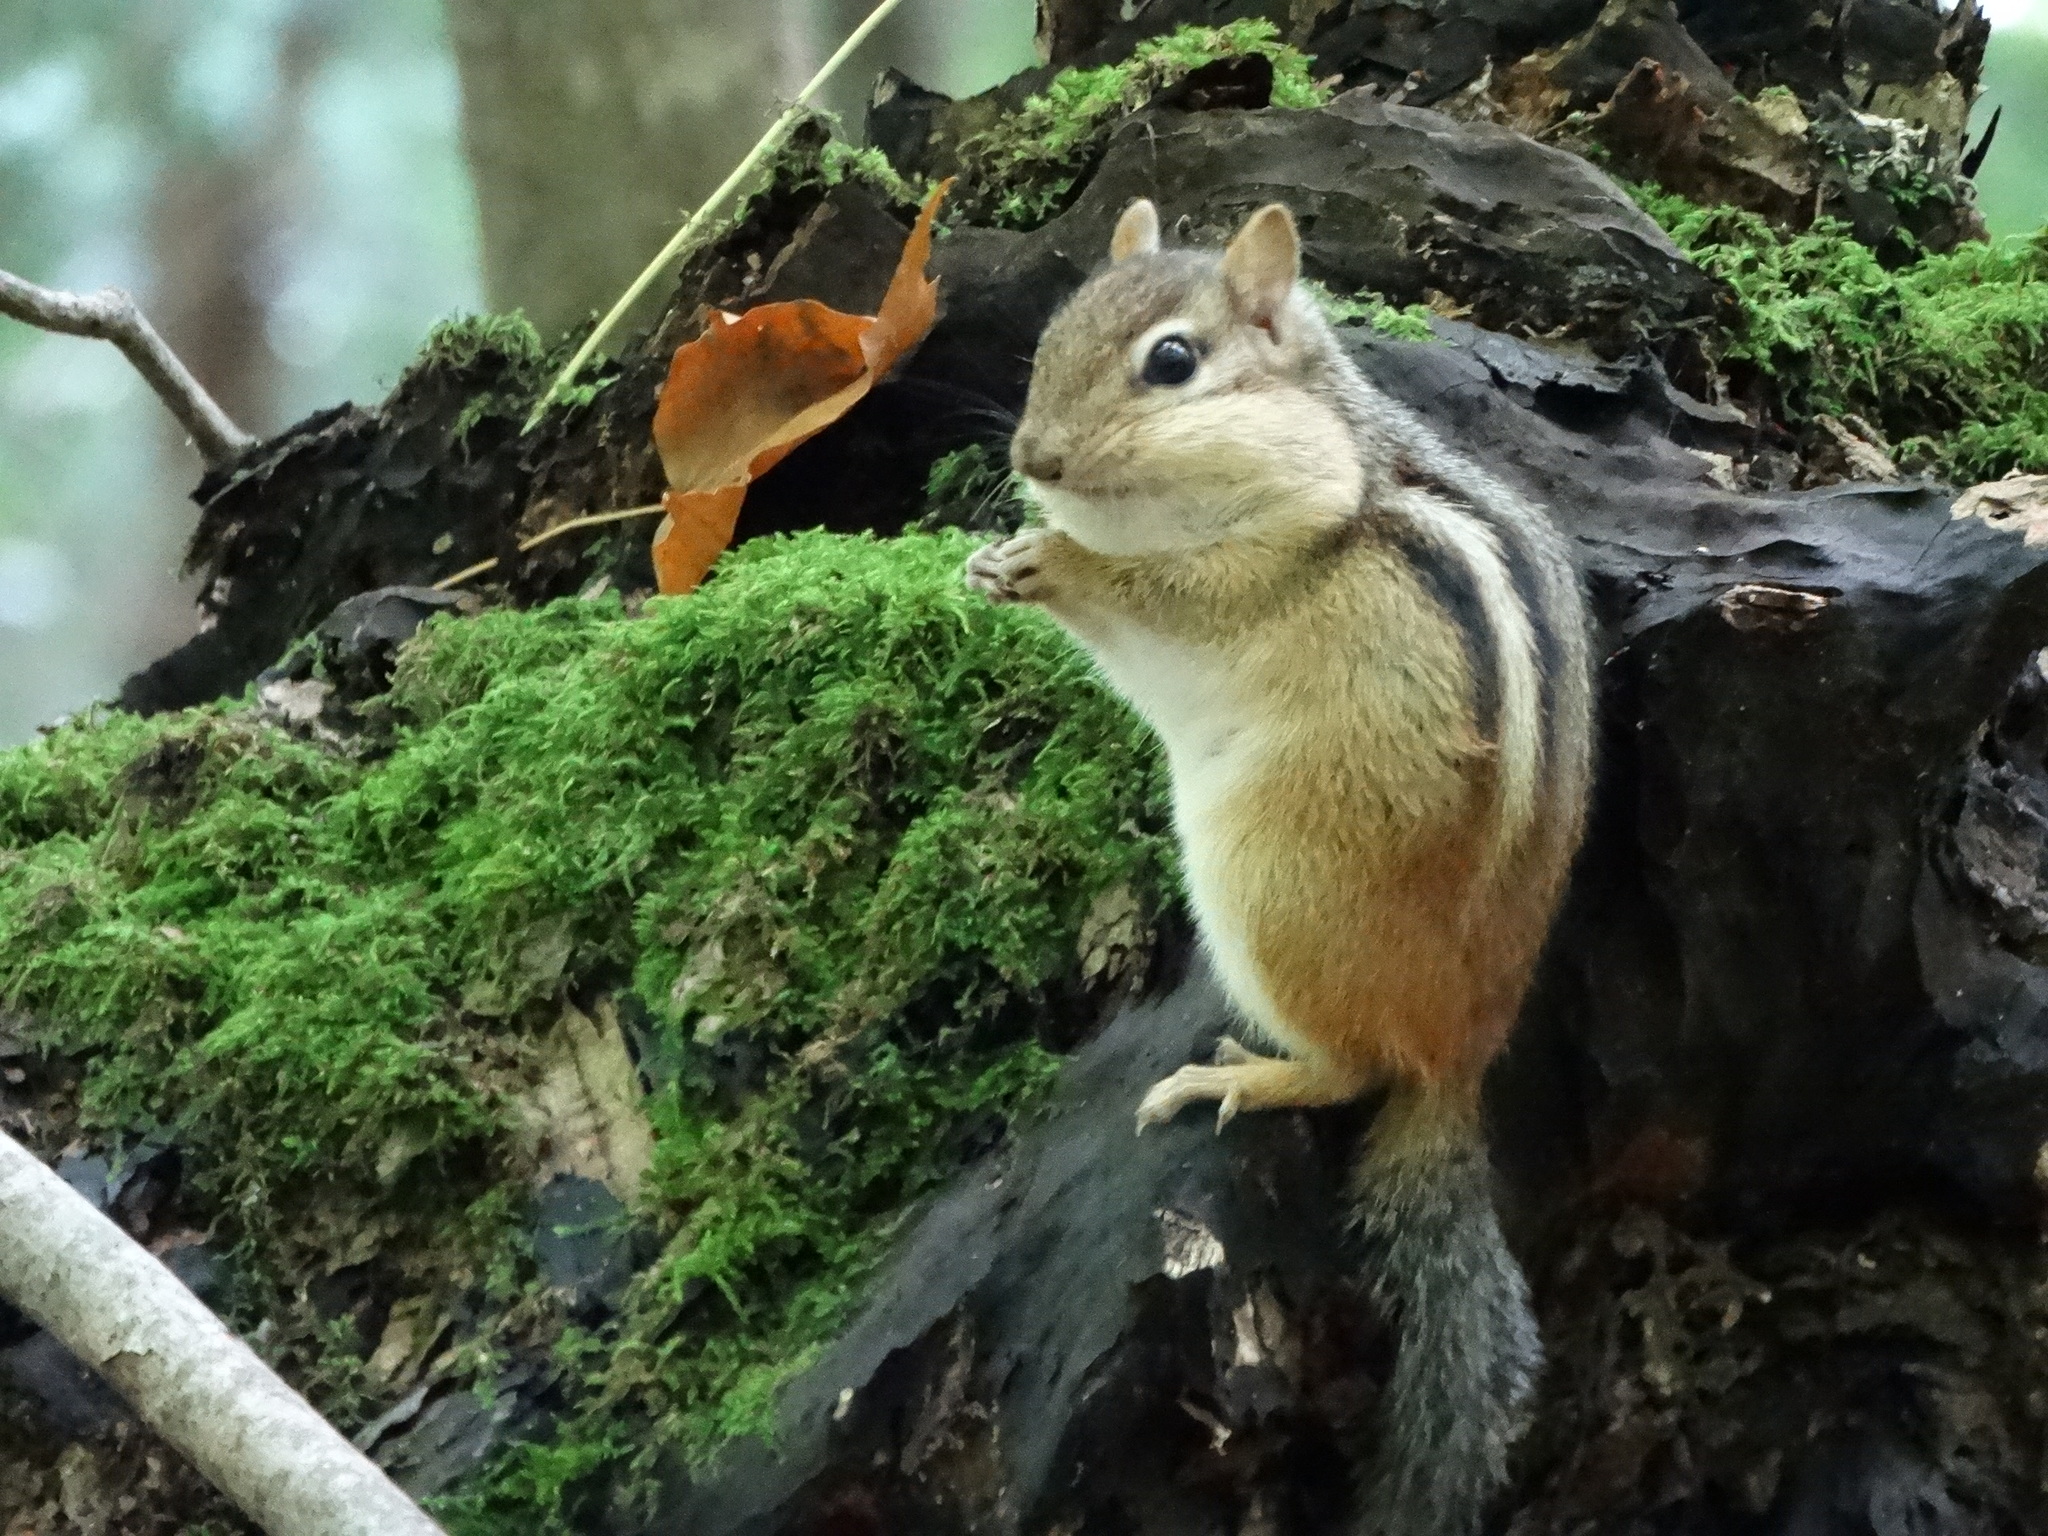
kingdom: Animalia
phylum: Chordata
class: Mammalia
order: Rodentia
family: Sciuridae
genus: Tamias
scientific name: Tamias striatus
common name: Eastern chipmunk
